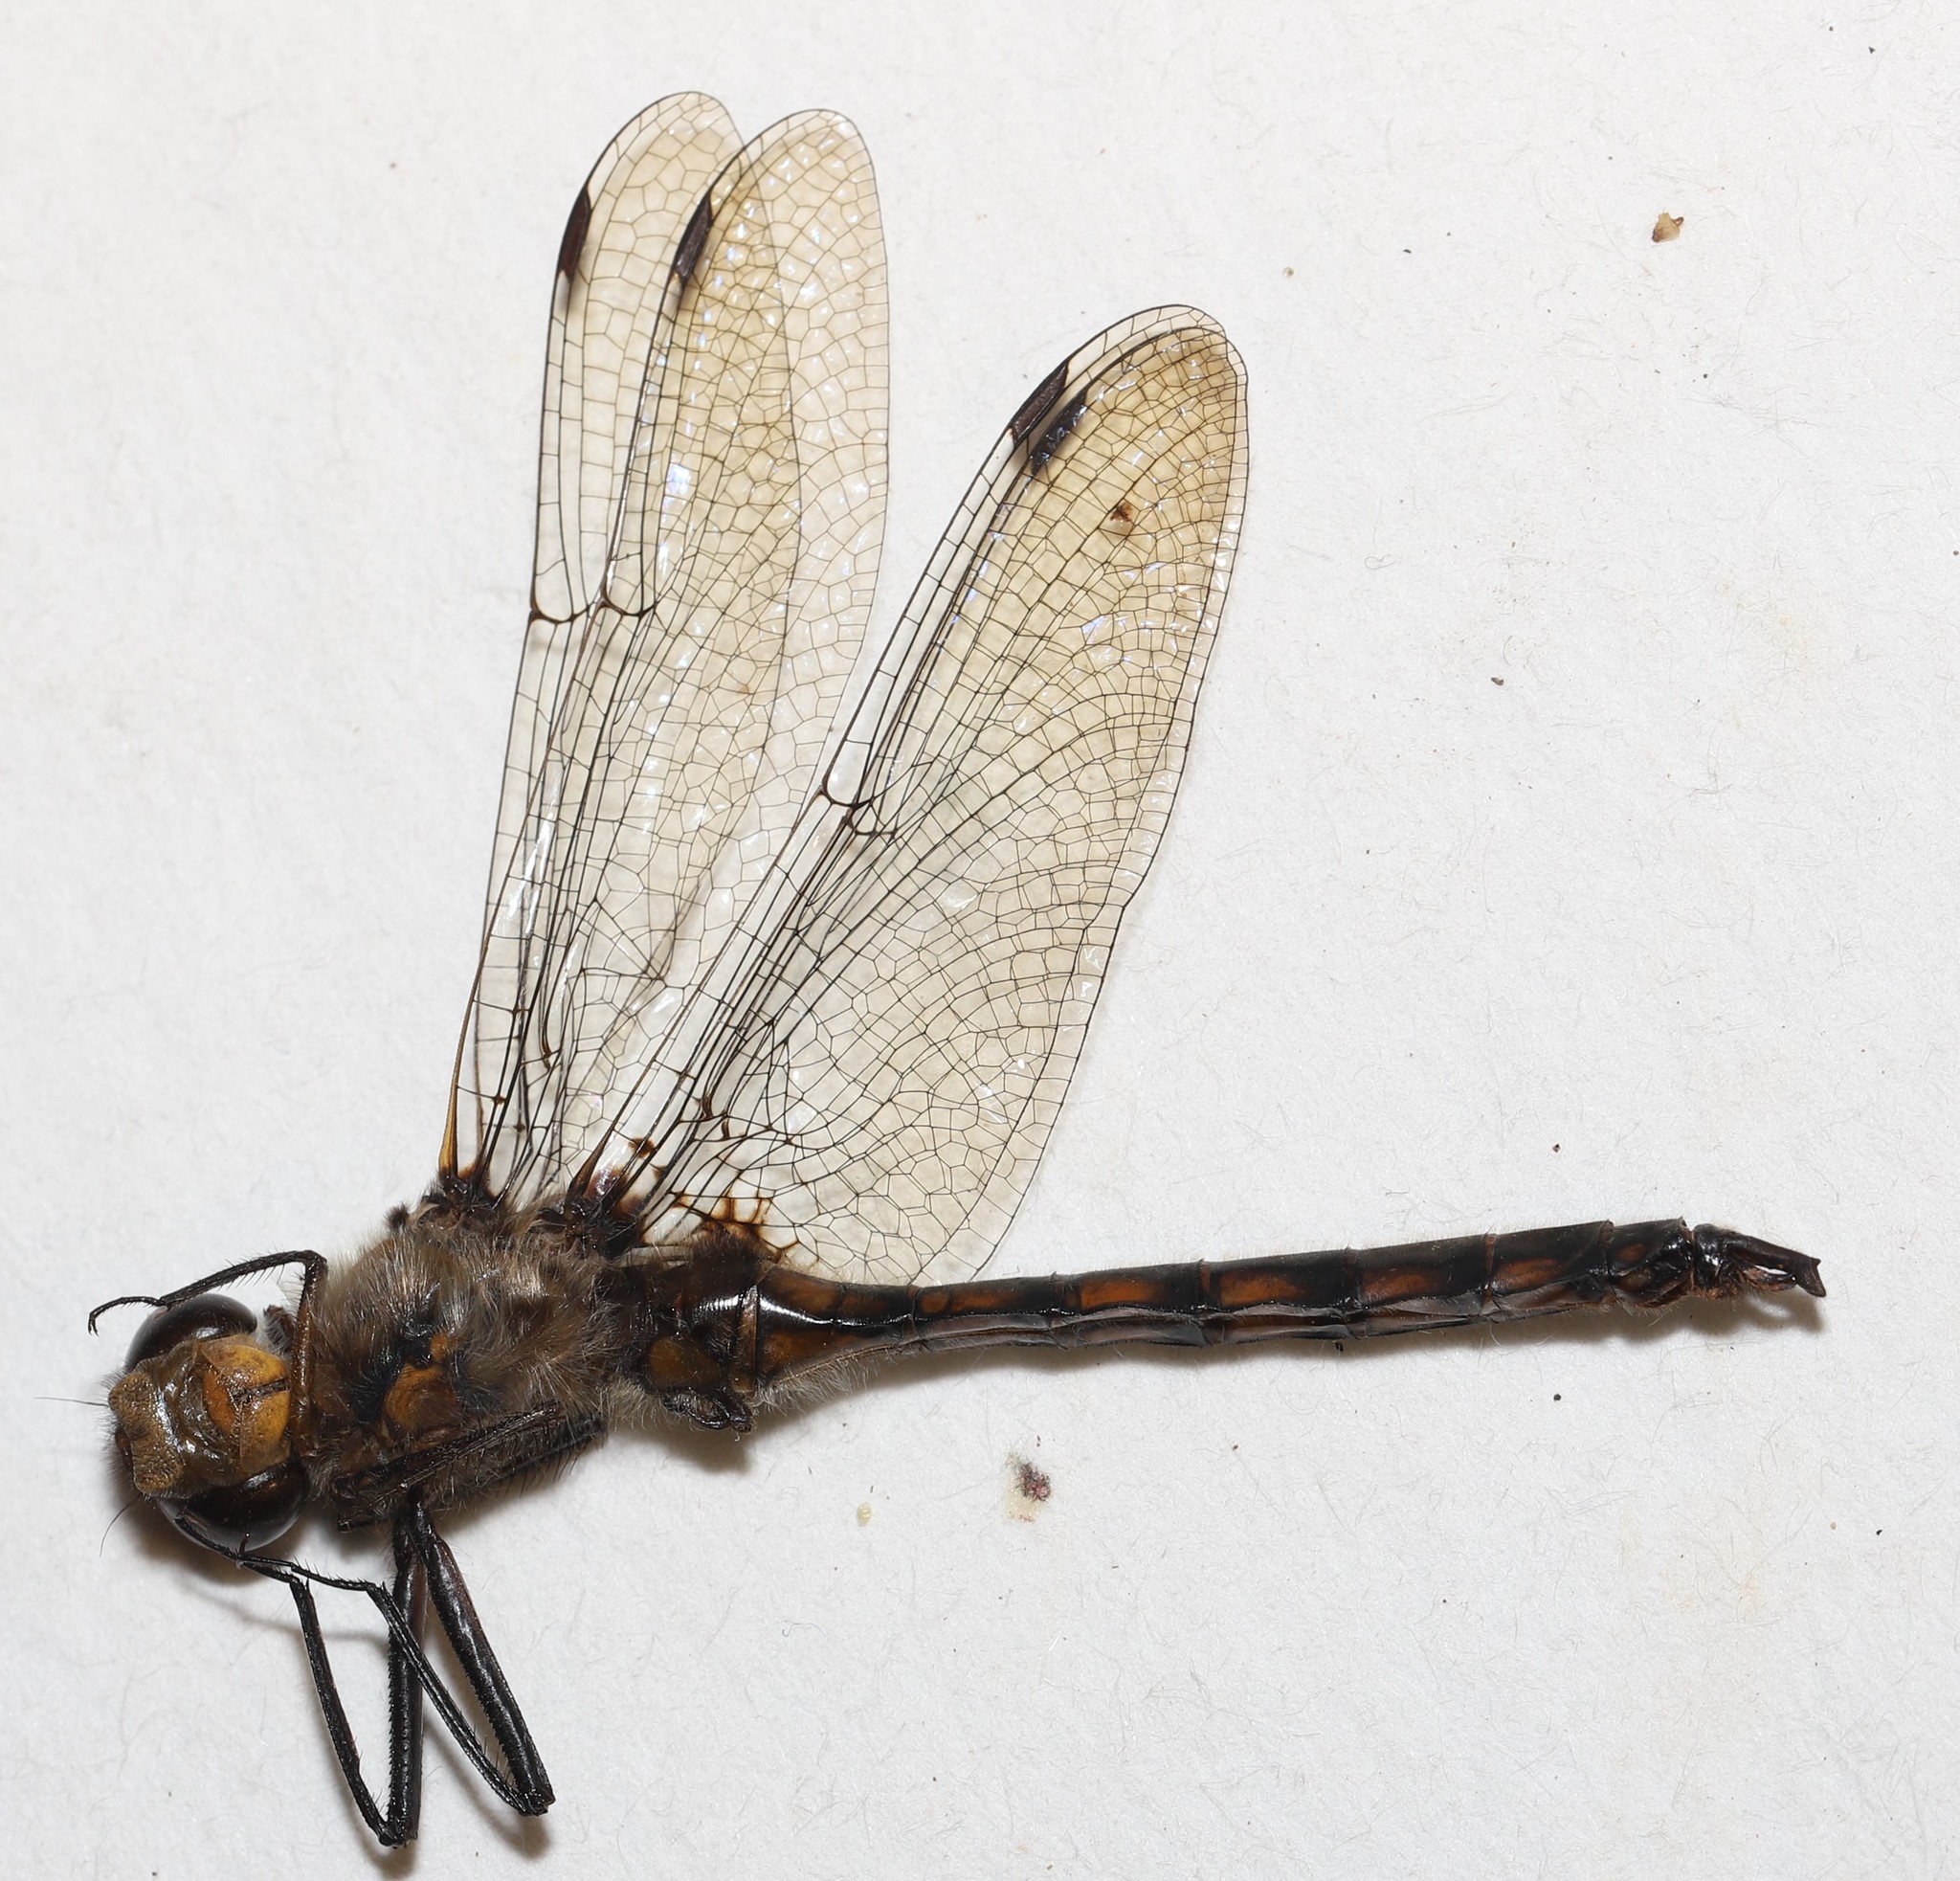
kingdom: Animalia
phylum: Arthropoda
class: Insecta
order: Odonata
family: Corduliidae
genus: Epitheca
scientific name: Epitheca canis
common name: Beaverpond baskettail
